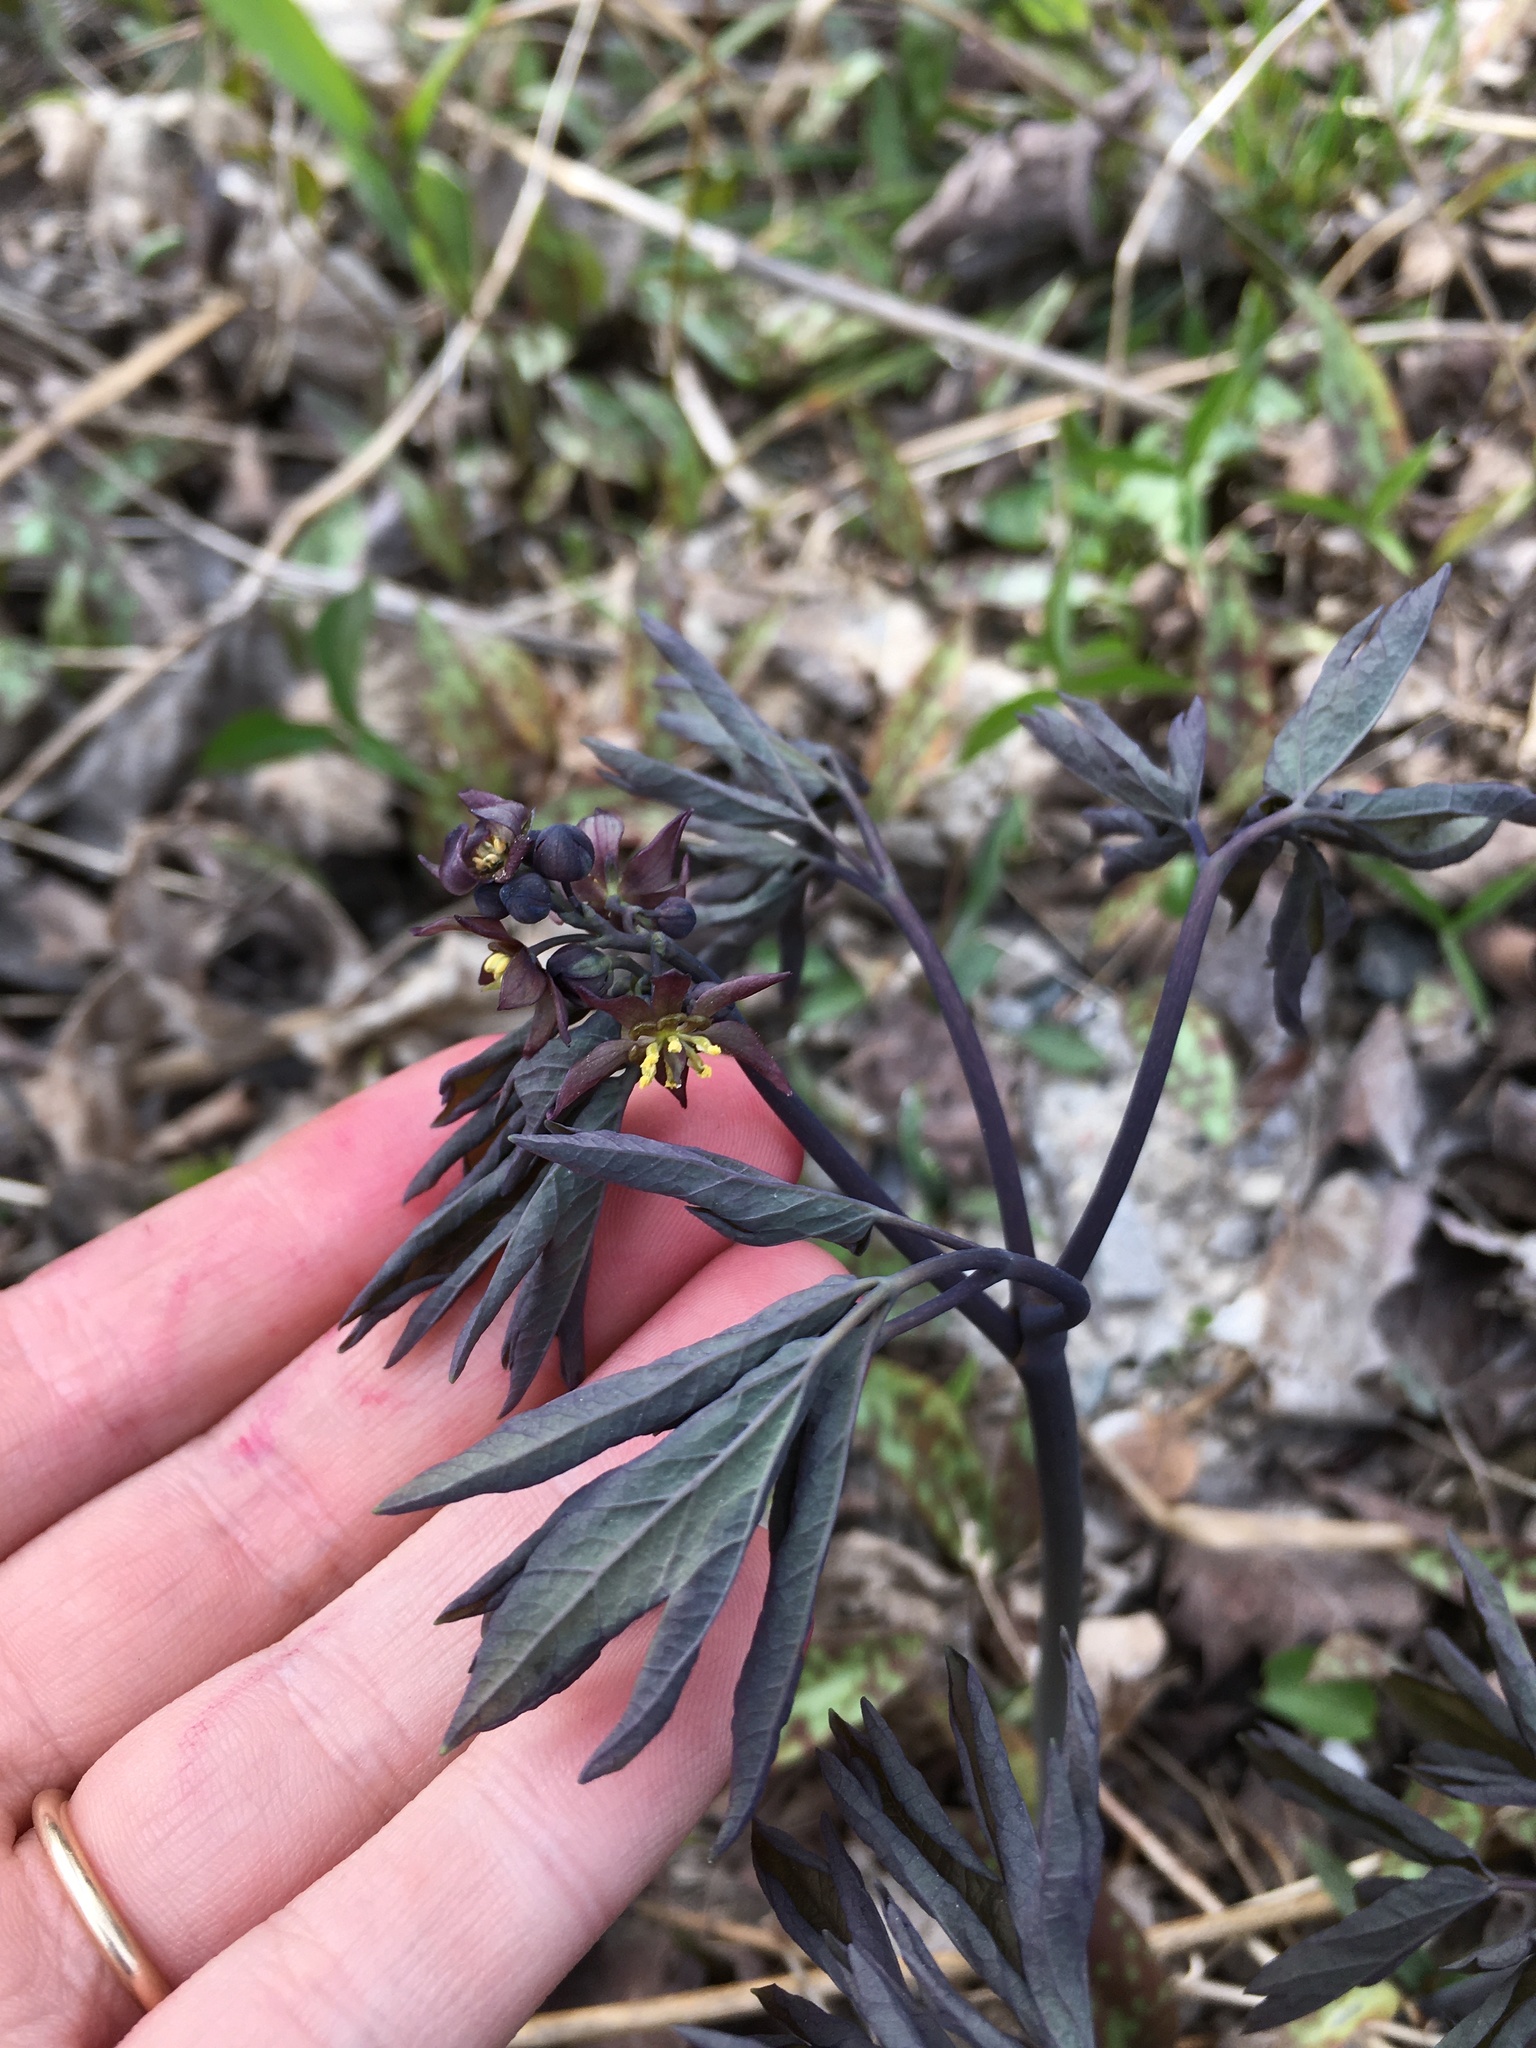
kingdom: Plantae
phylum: Tracheophyta
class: Magnoliopsida
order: Ranunculales
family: Berberidaceae
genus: Caulophyllum
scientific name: Caulophyllum giganteum
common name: Blue cohosh
